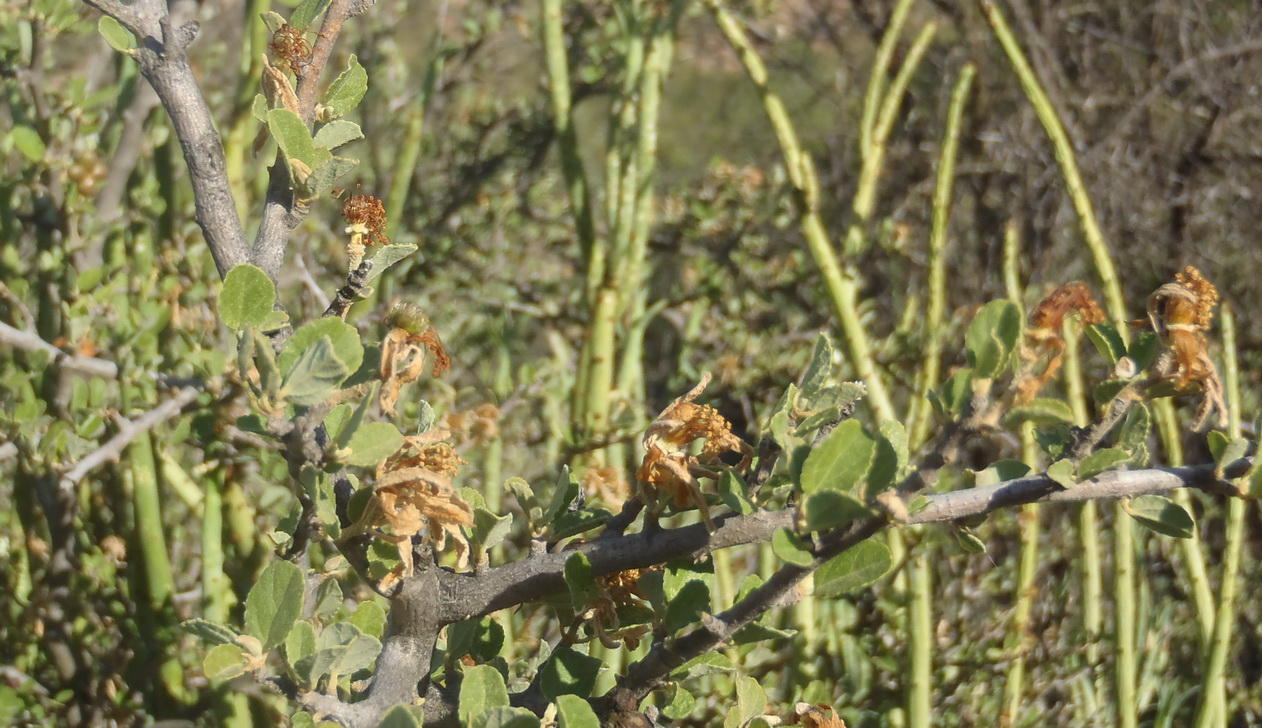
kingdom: Plantae
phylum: Tracheophyta
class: Magnoliopsida
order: Malvales
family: Malvaceae
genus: Grewia
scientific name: Grewia robusta
